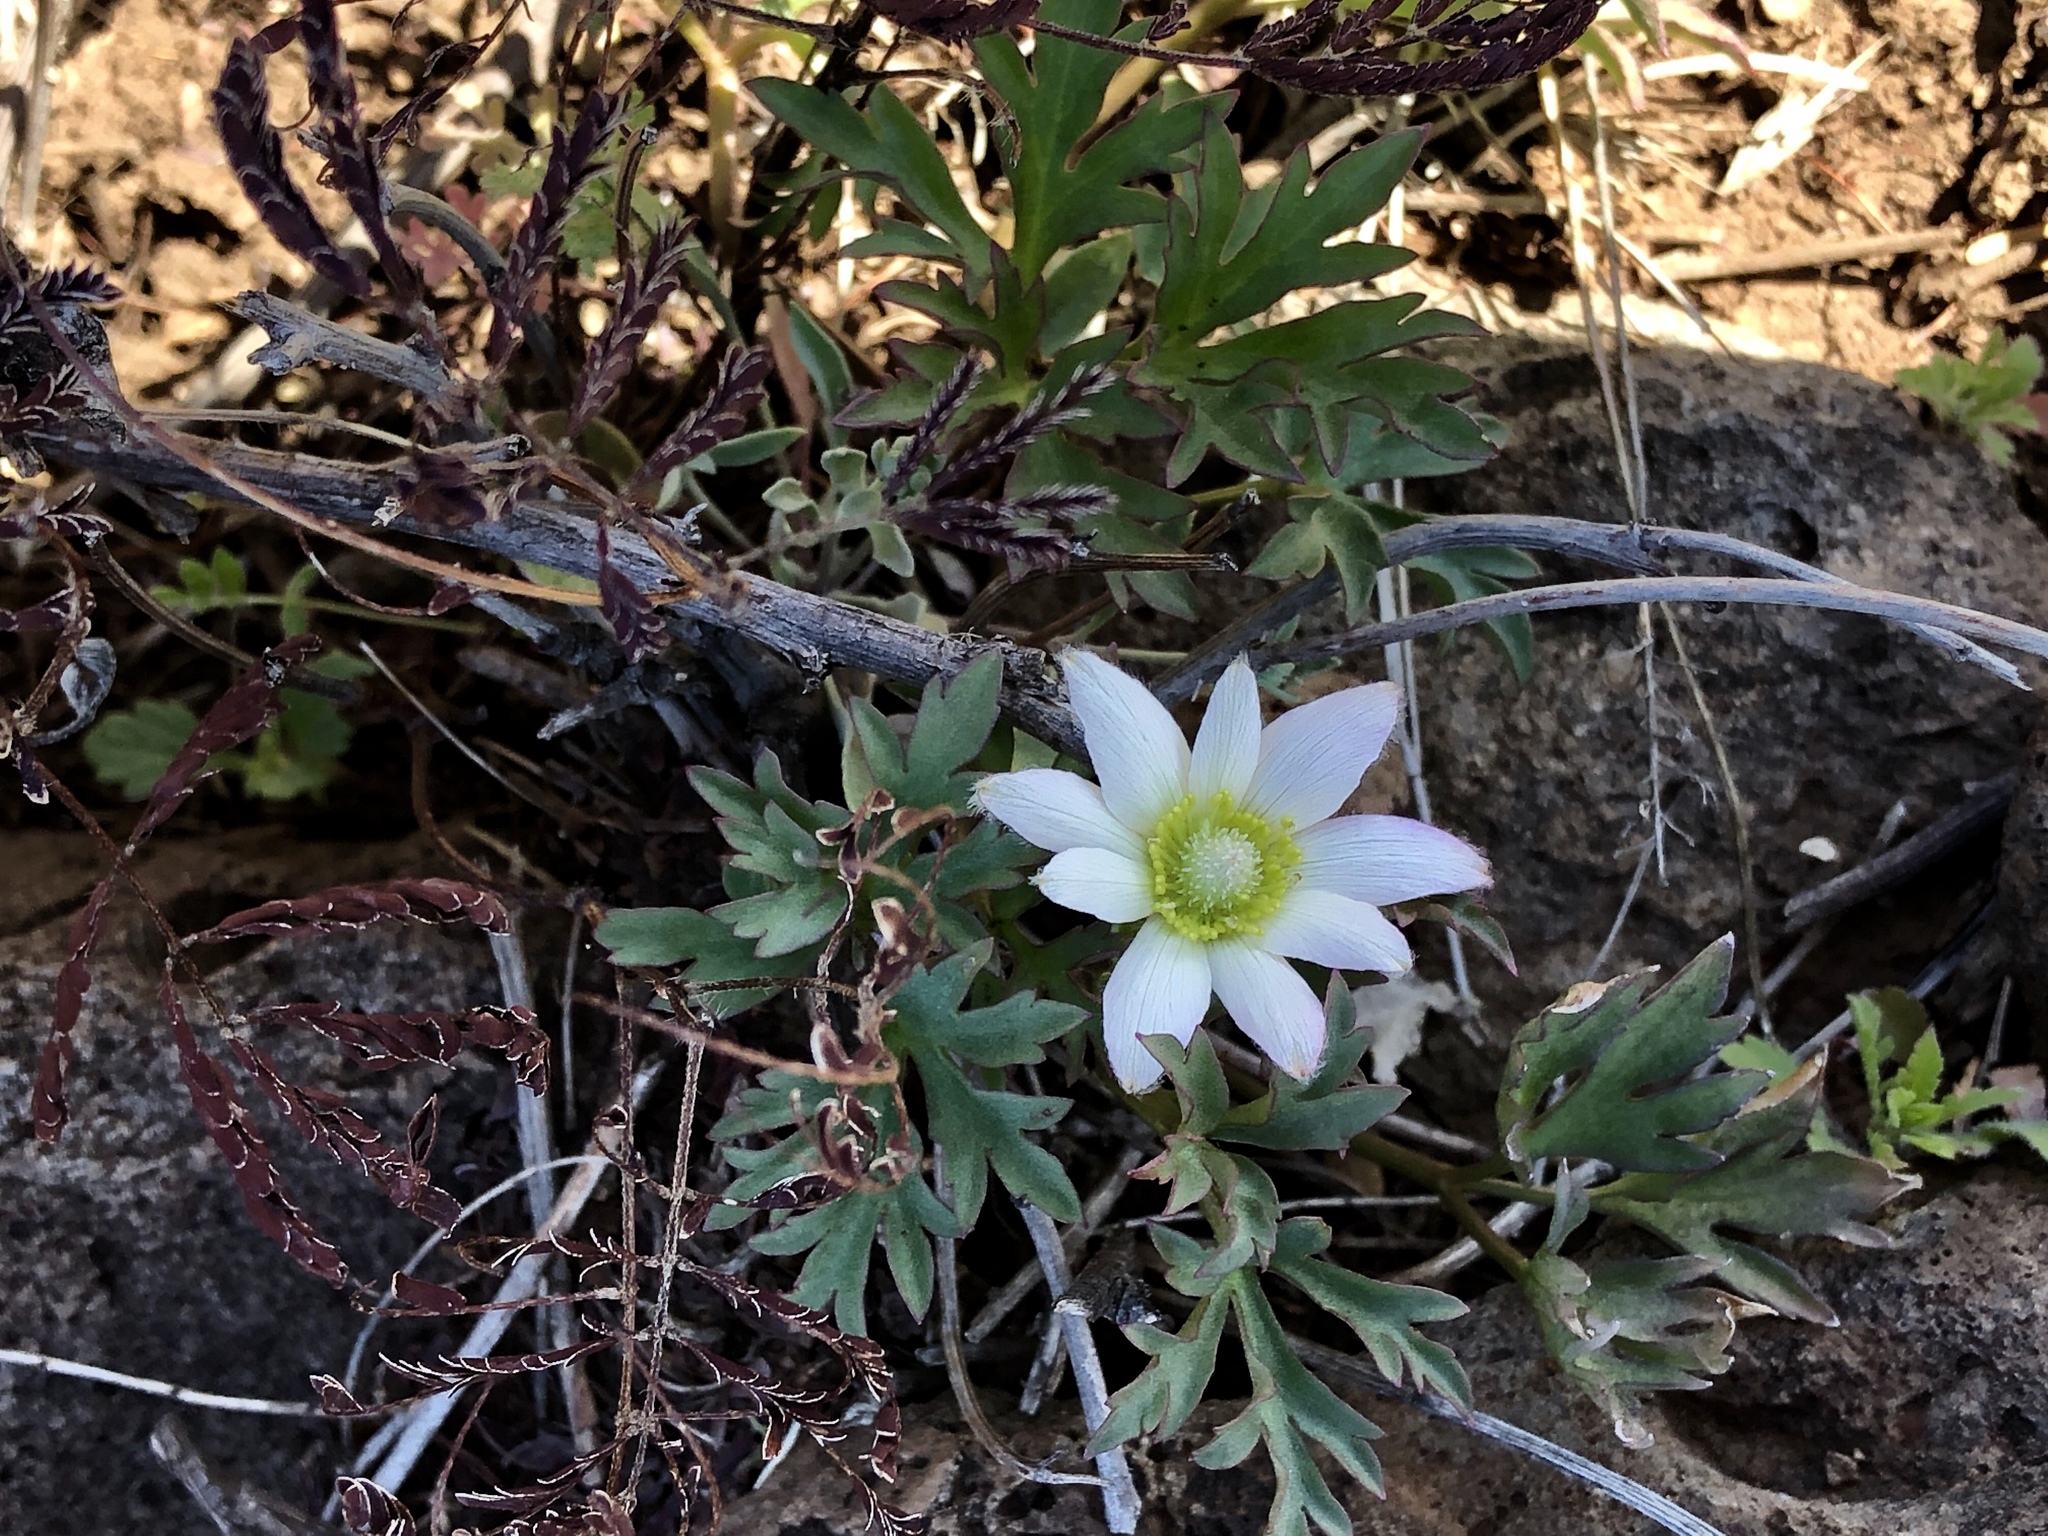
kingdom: Plantae
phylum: Tracheophyta
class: Magnoliopsida
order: Ranunculales
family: Ranunculaceae
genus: Anemone
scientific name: Anemone tuberosa
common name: Desert anemone
